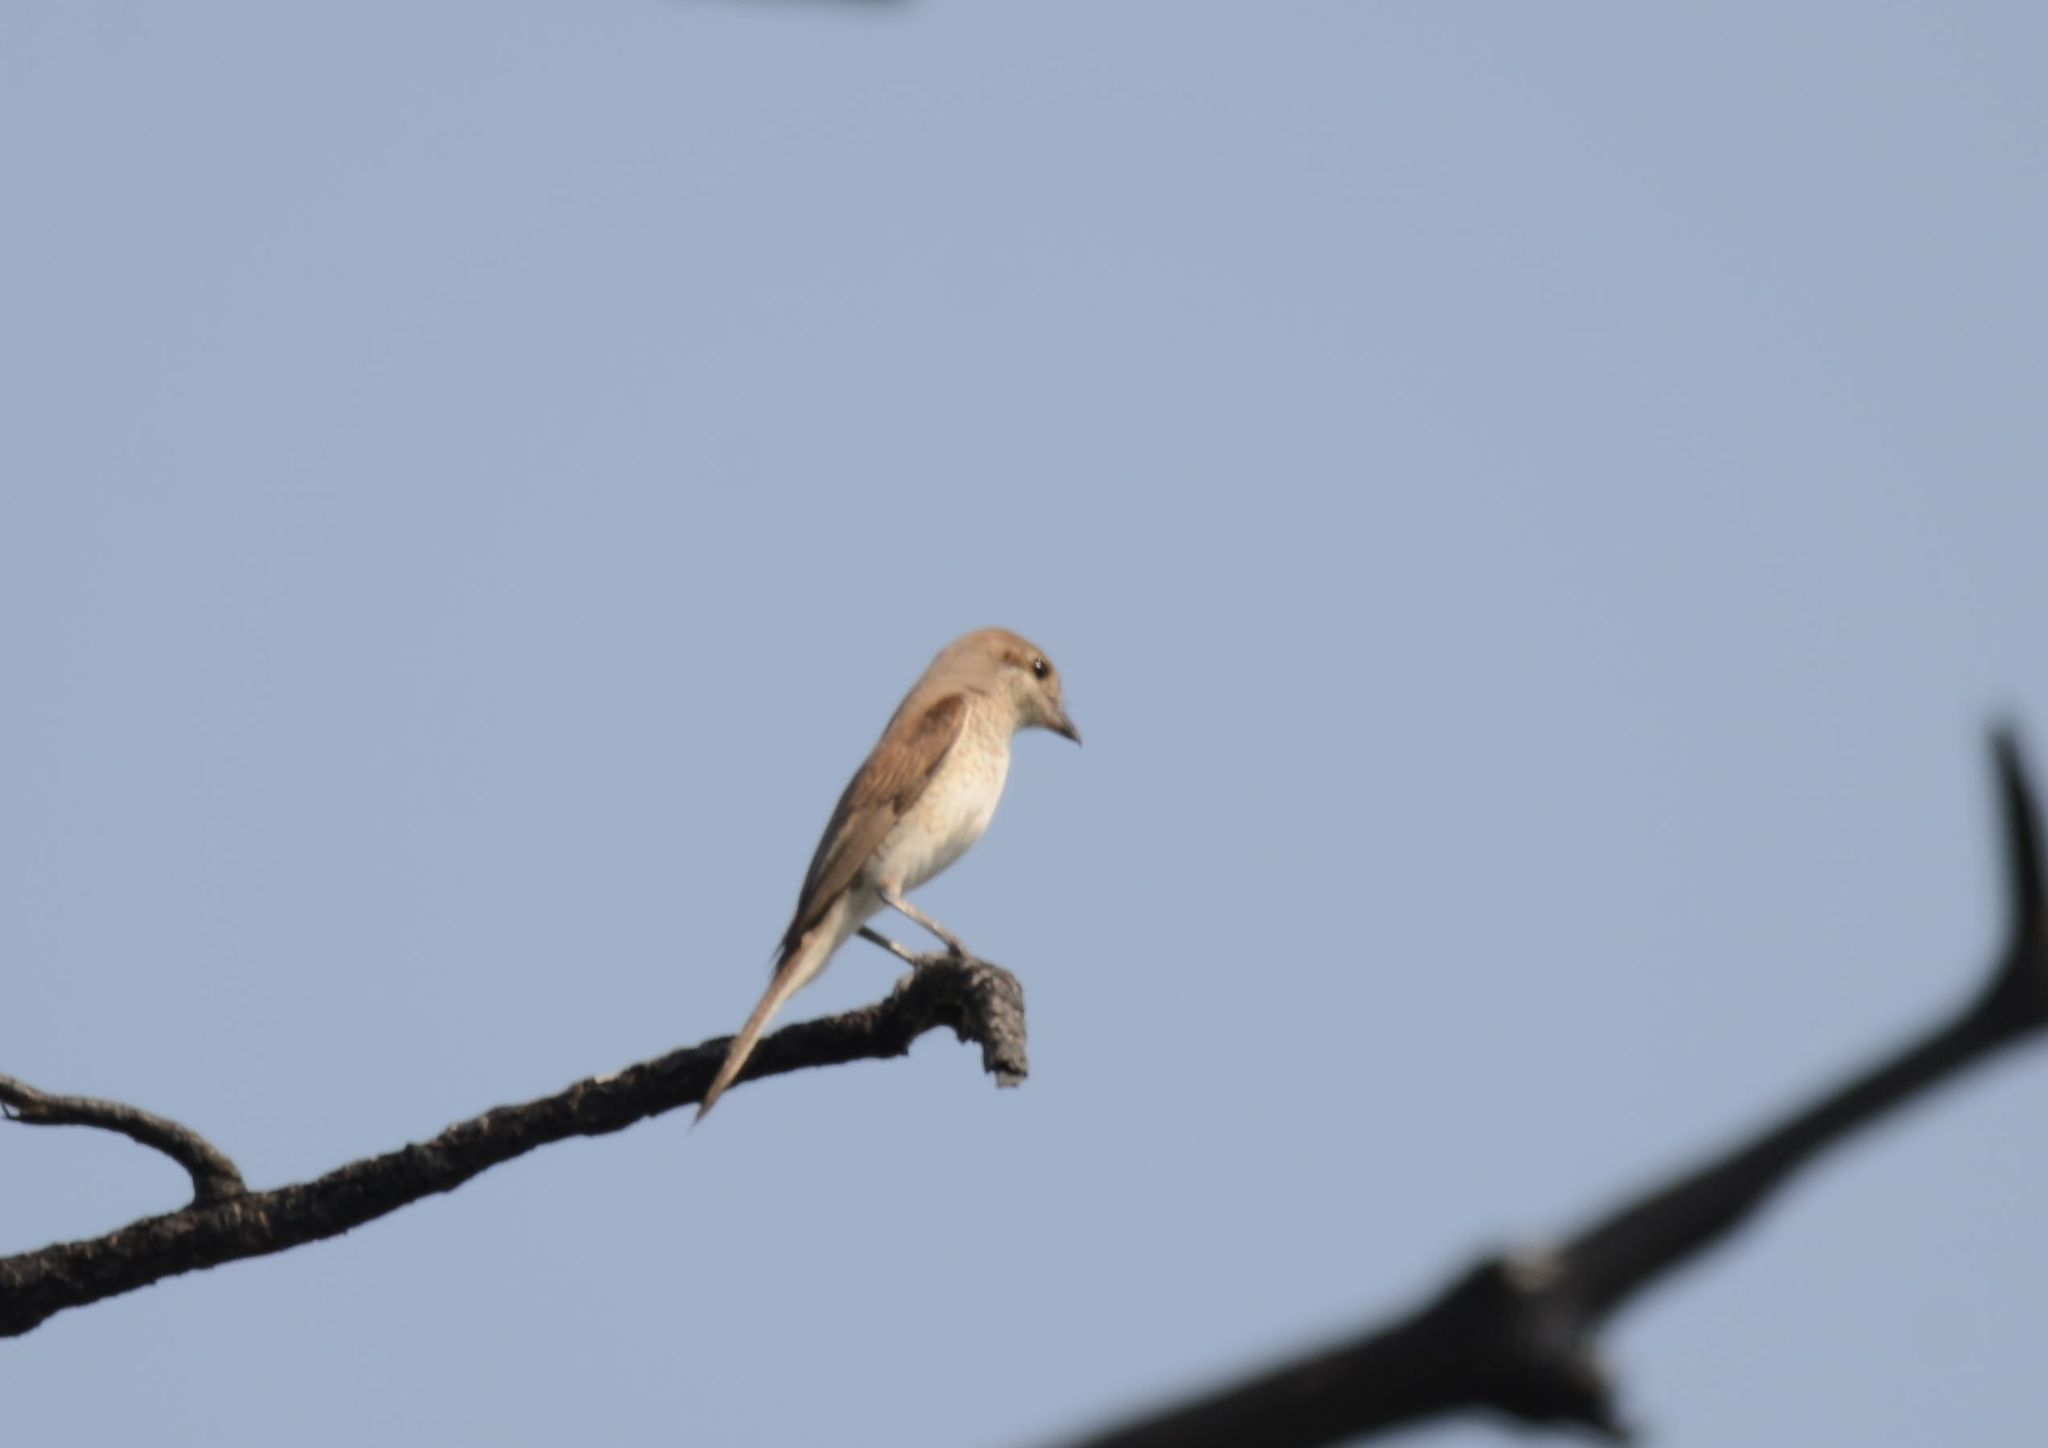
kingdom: Animalia
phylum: Chordata
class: Aves
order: Passeriformes
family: Laniidae
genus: Lanius
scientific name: Lanius collurio
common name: Red-backed shrike
